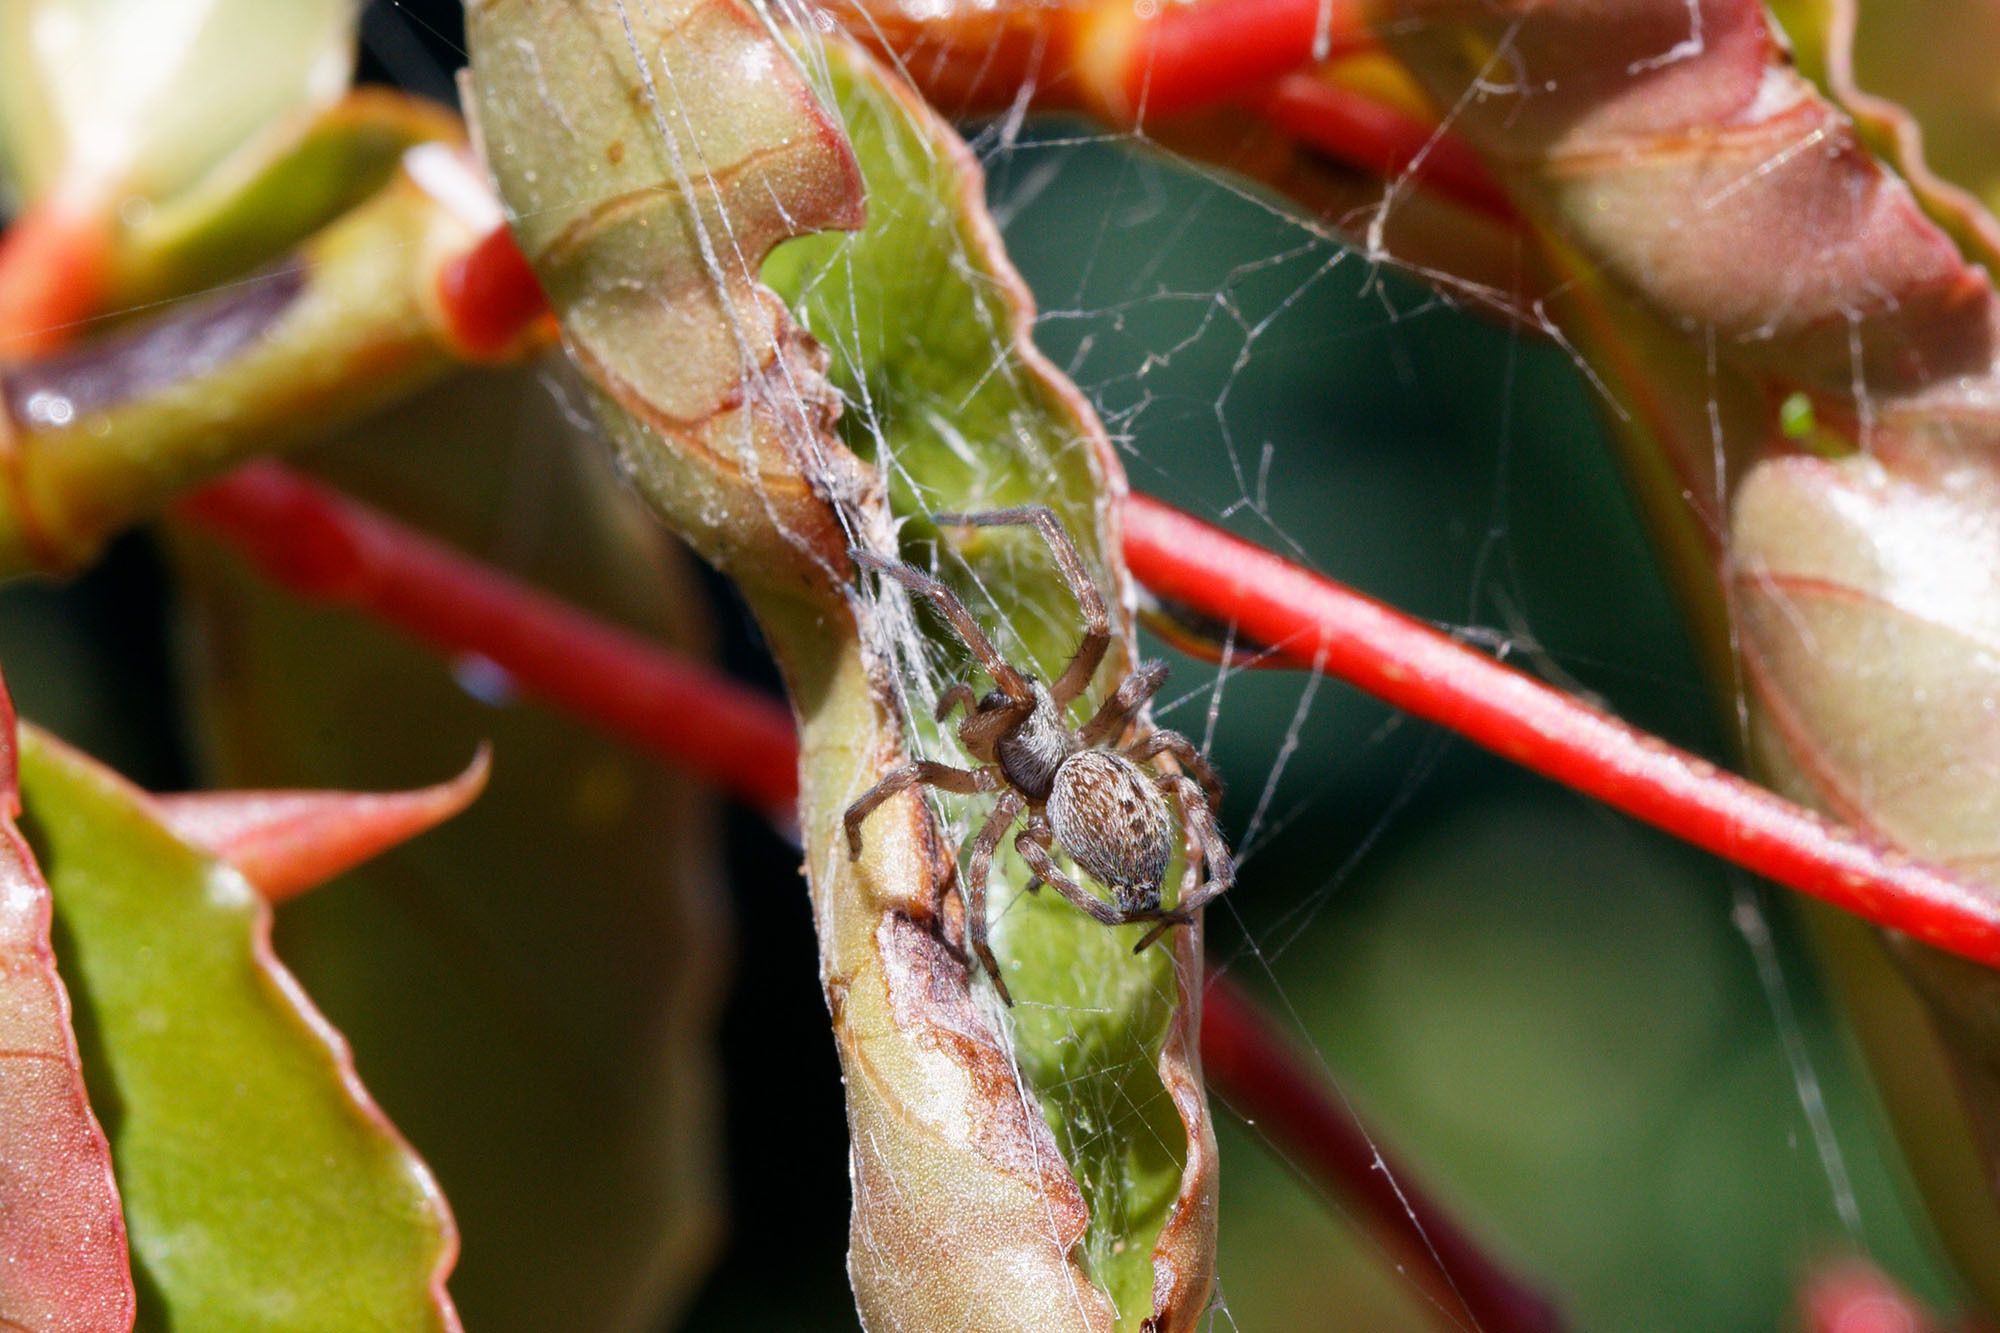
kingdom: Animalia
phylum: Arthropoda
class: Arachnida
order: Araneae
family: Desidae
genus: Badumna
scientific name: Badumna longinqua
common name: Gray house spider
